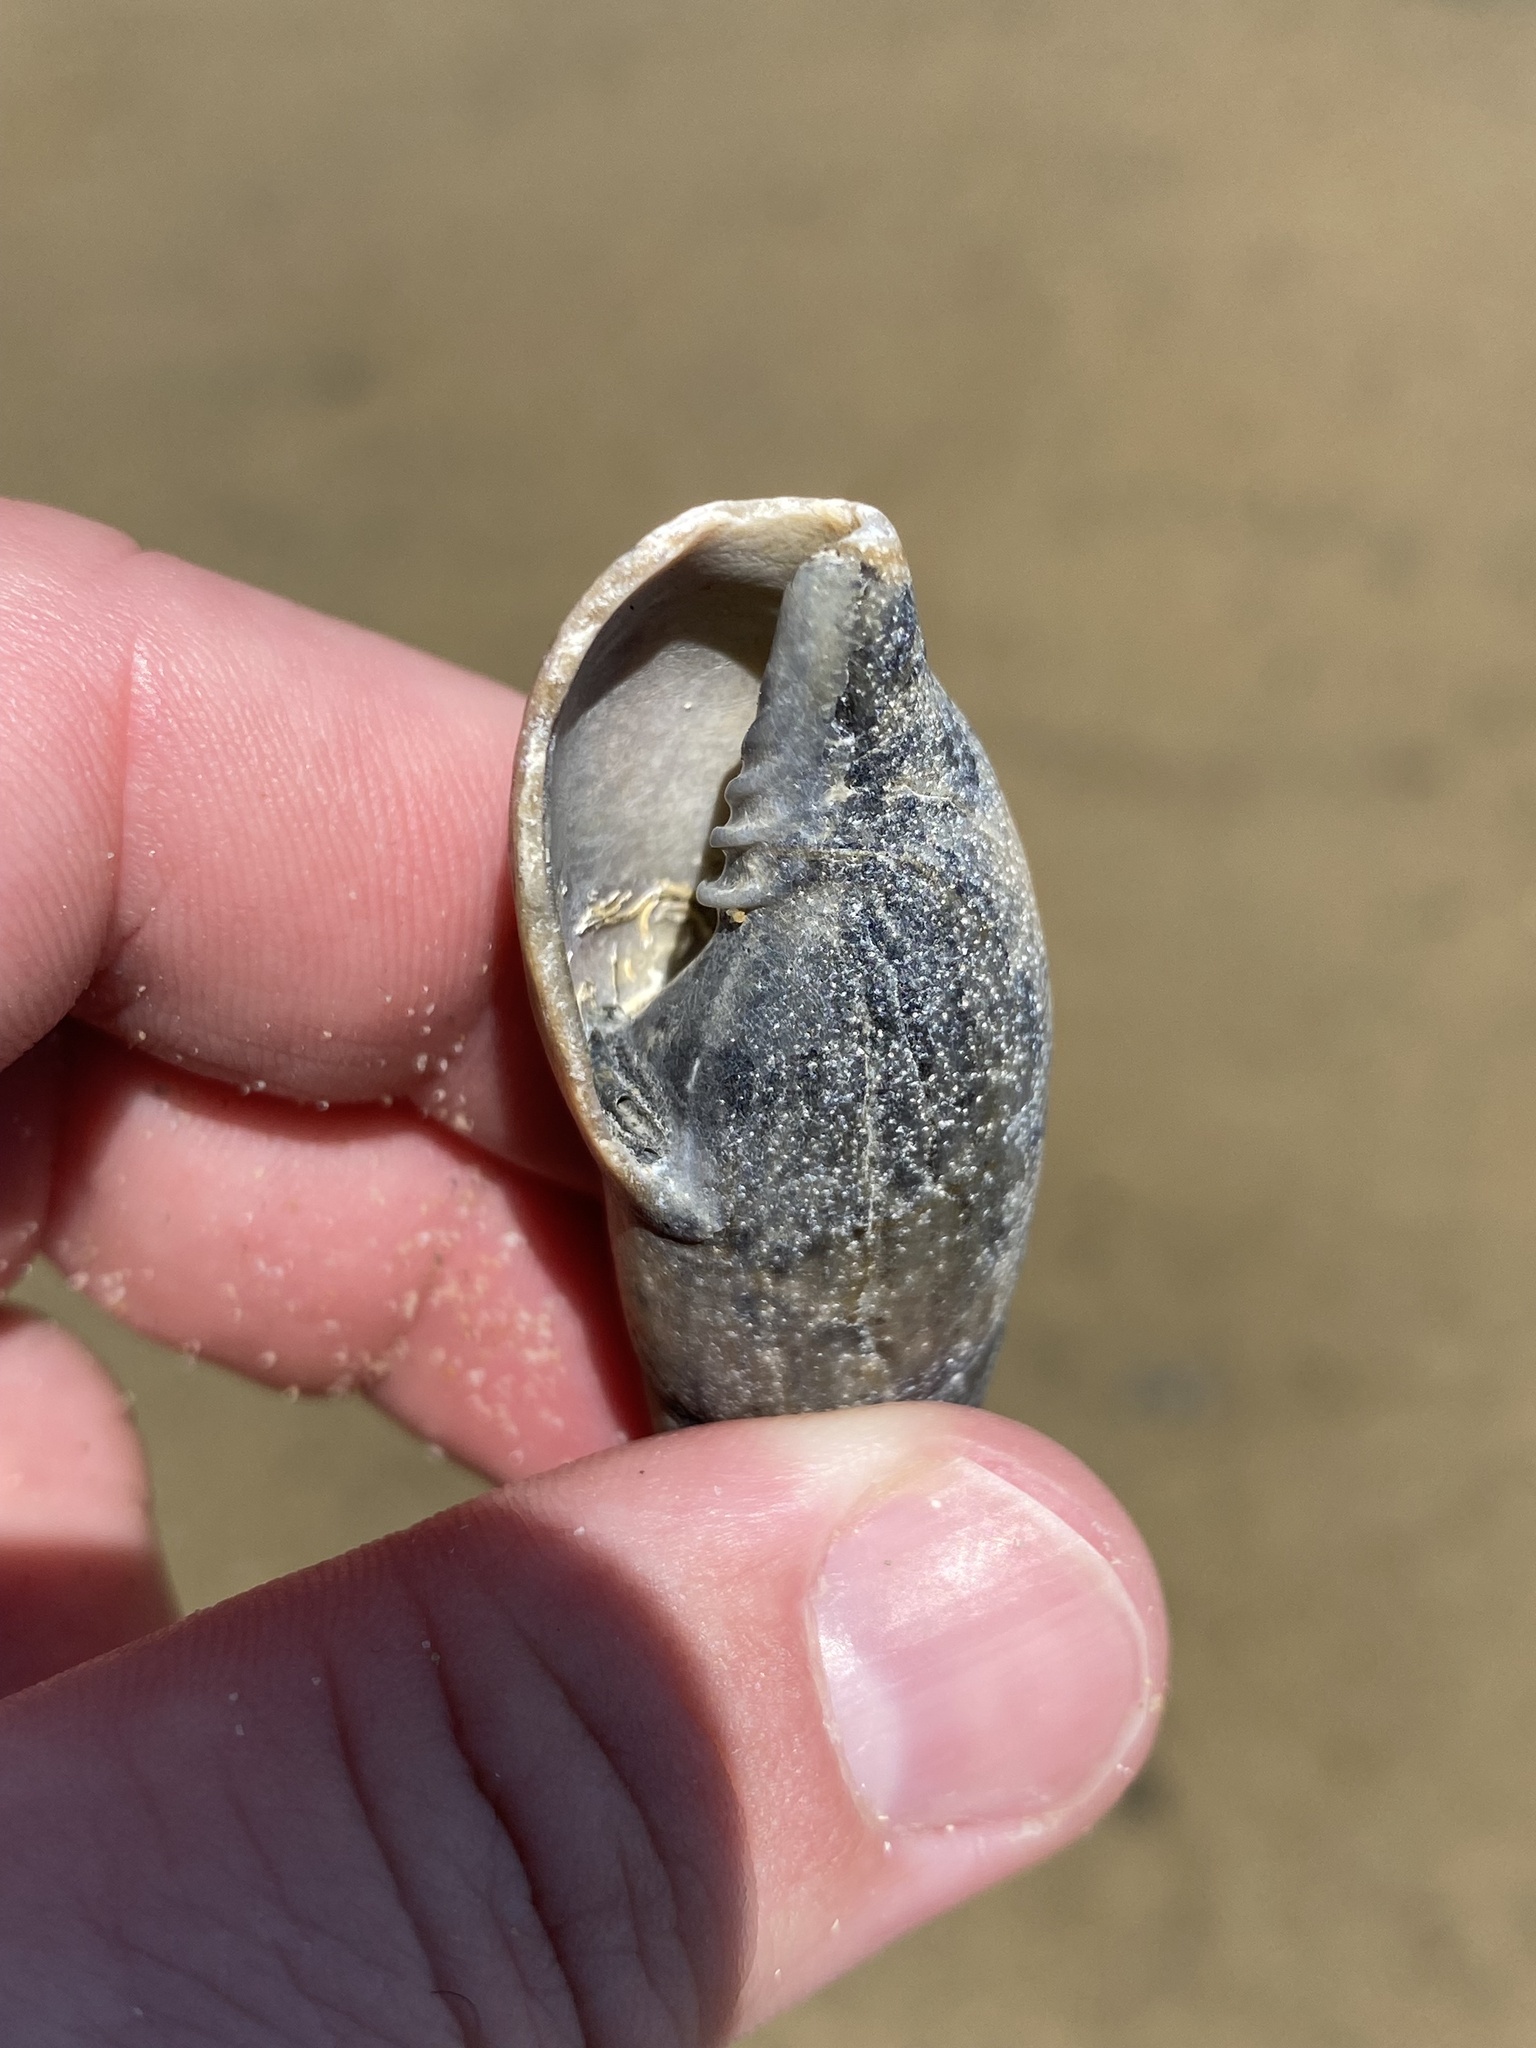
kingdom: Animalia
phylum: Mollusca
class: Gastropoda
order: Neogastropoda
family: Mitridae
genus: Isara
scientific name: Isara glabra
